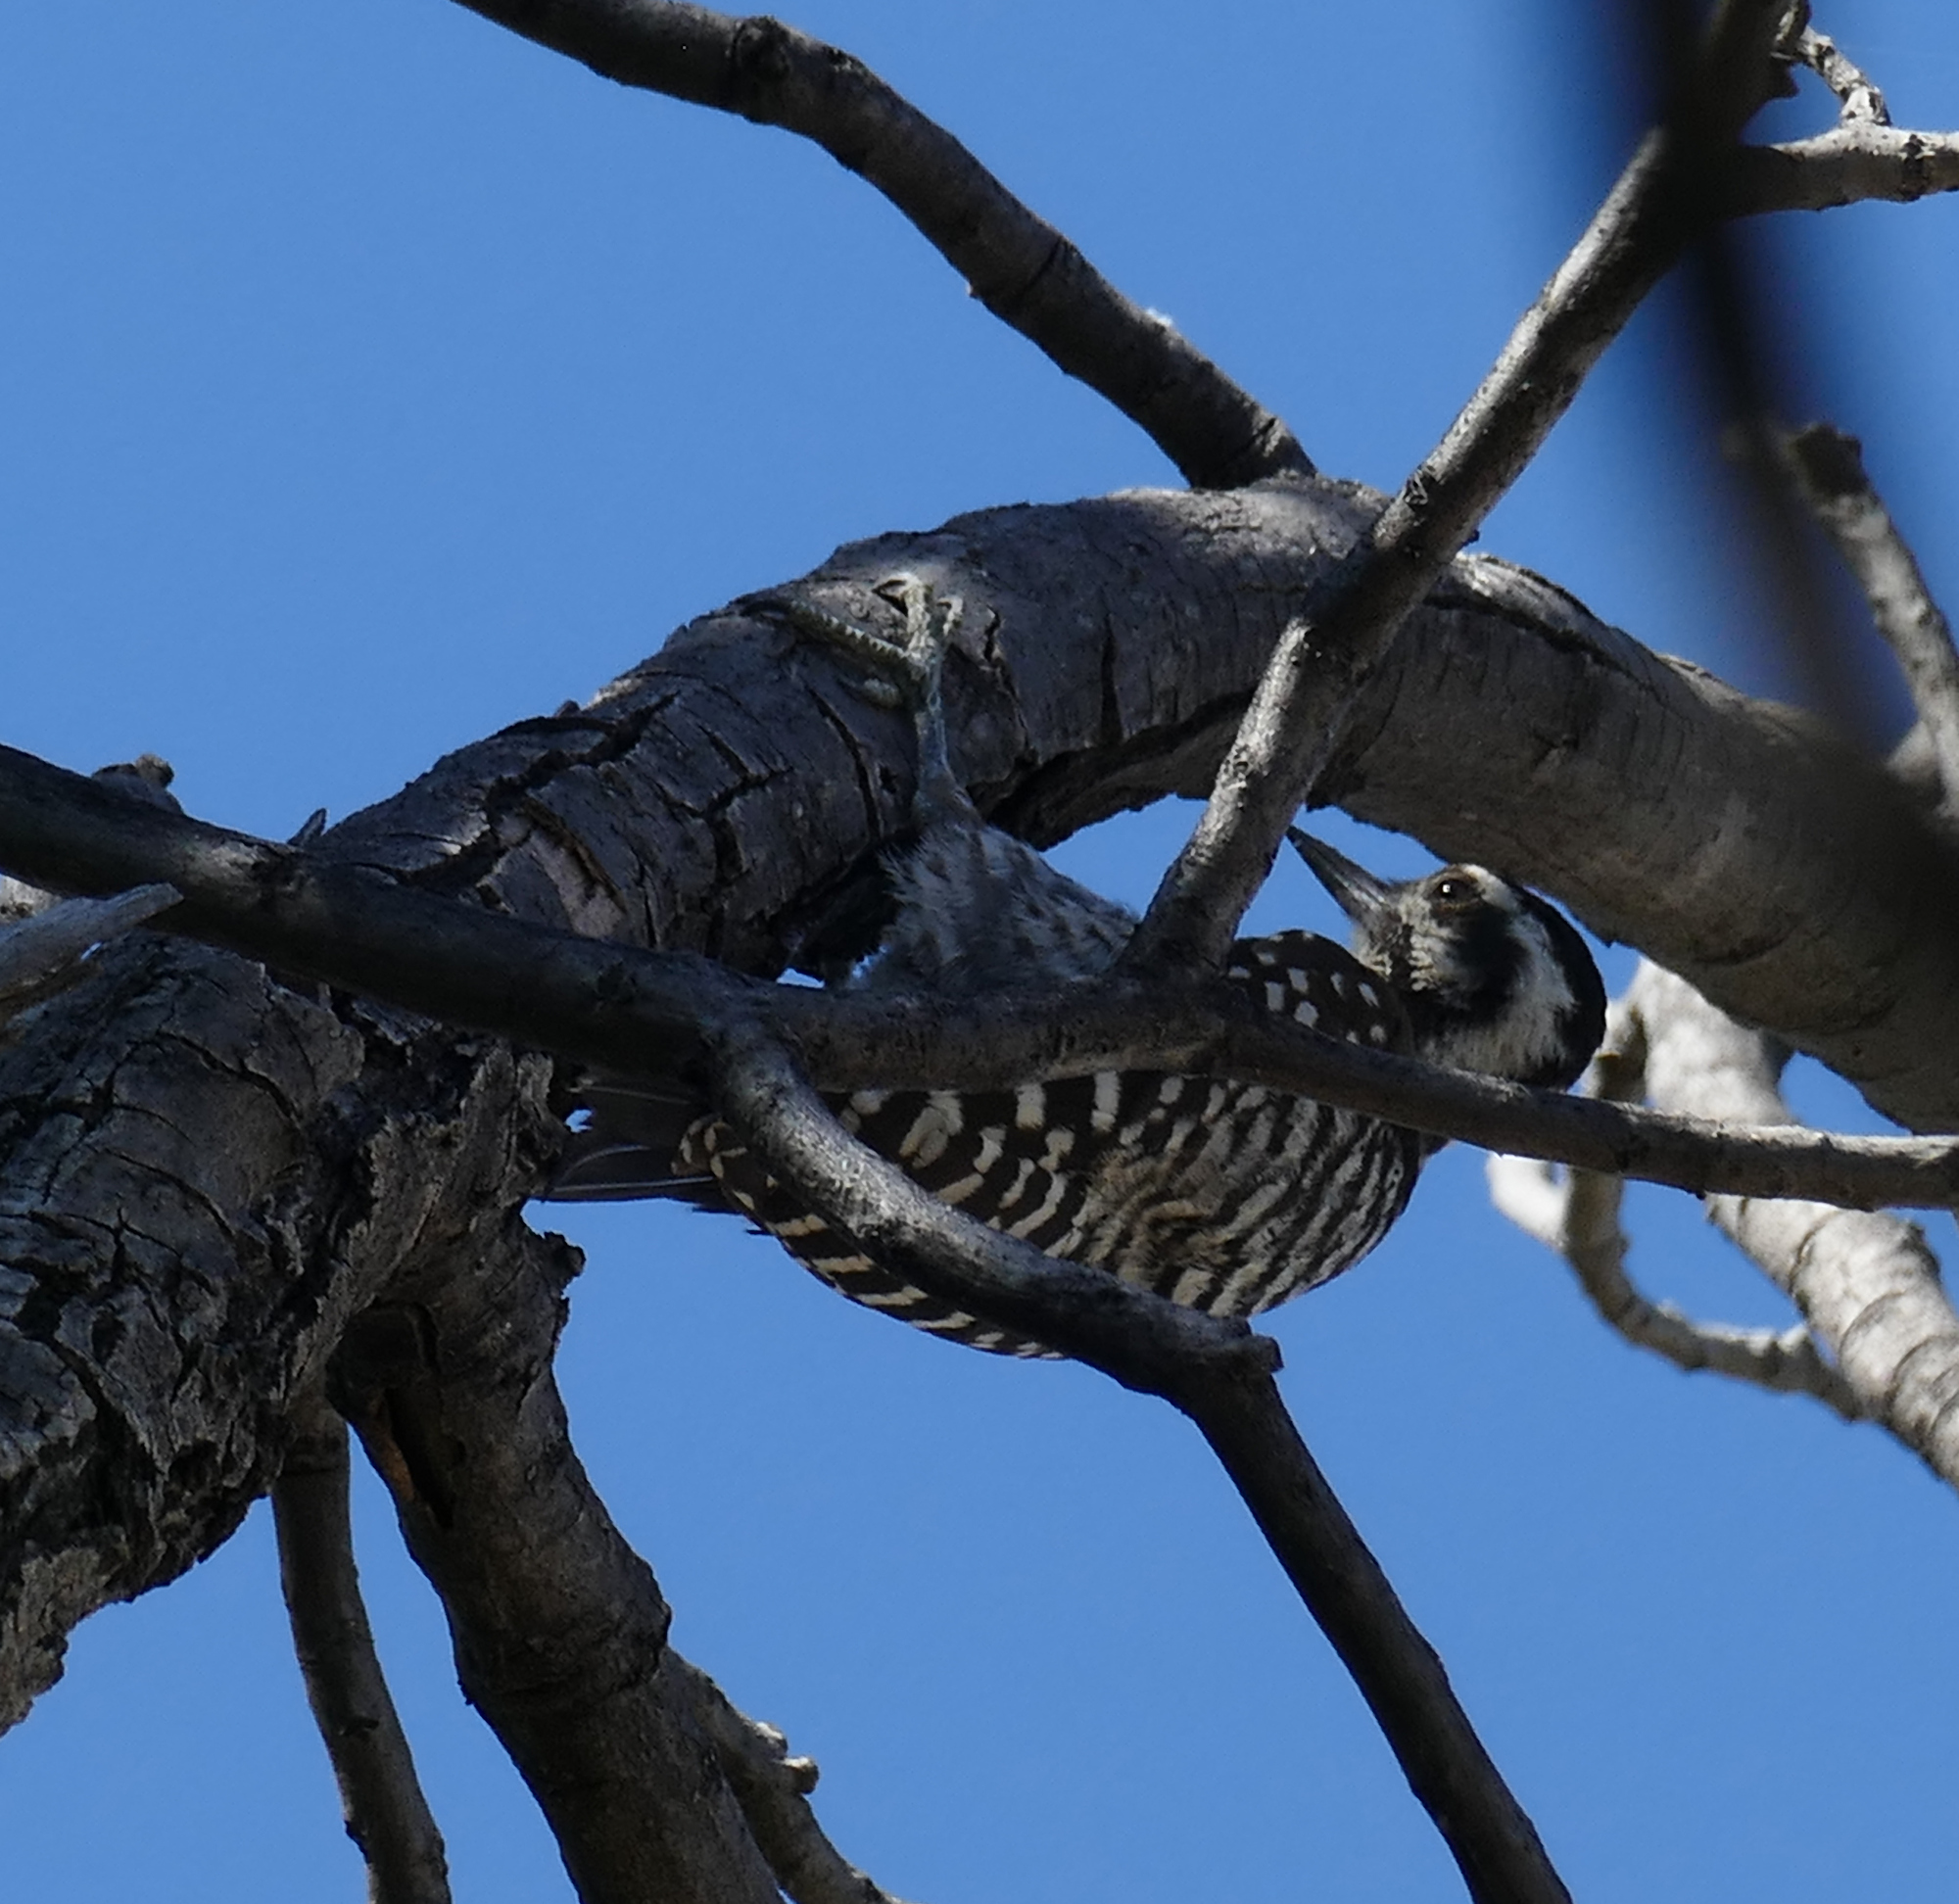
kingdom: Animalia
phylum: Chordata
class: Aves
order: Piciformes
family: Picidae
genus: Dryobates
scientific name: Dryobates scalaris
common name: Ladder-backed woodpecker
